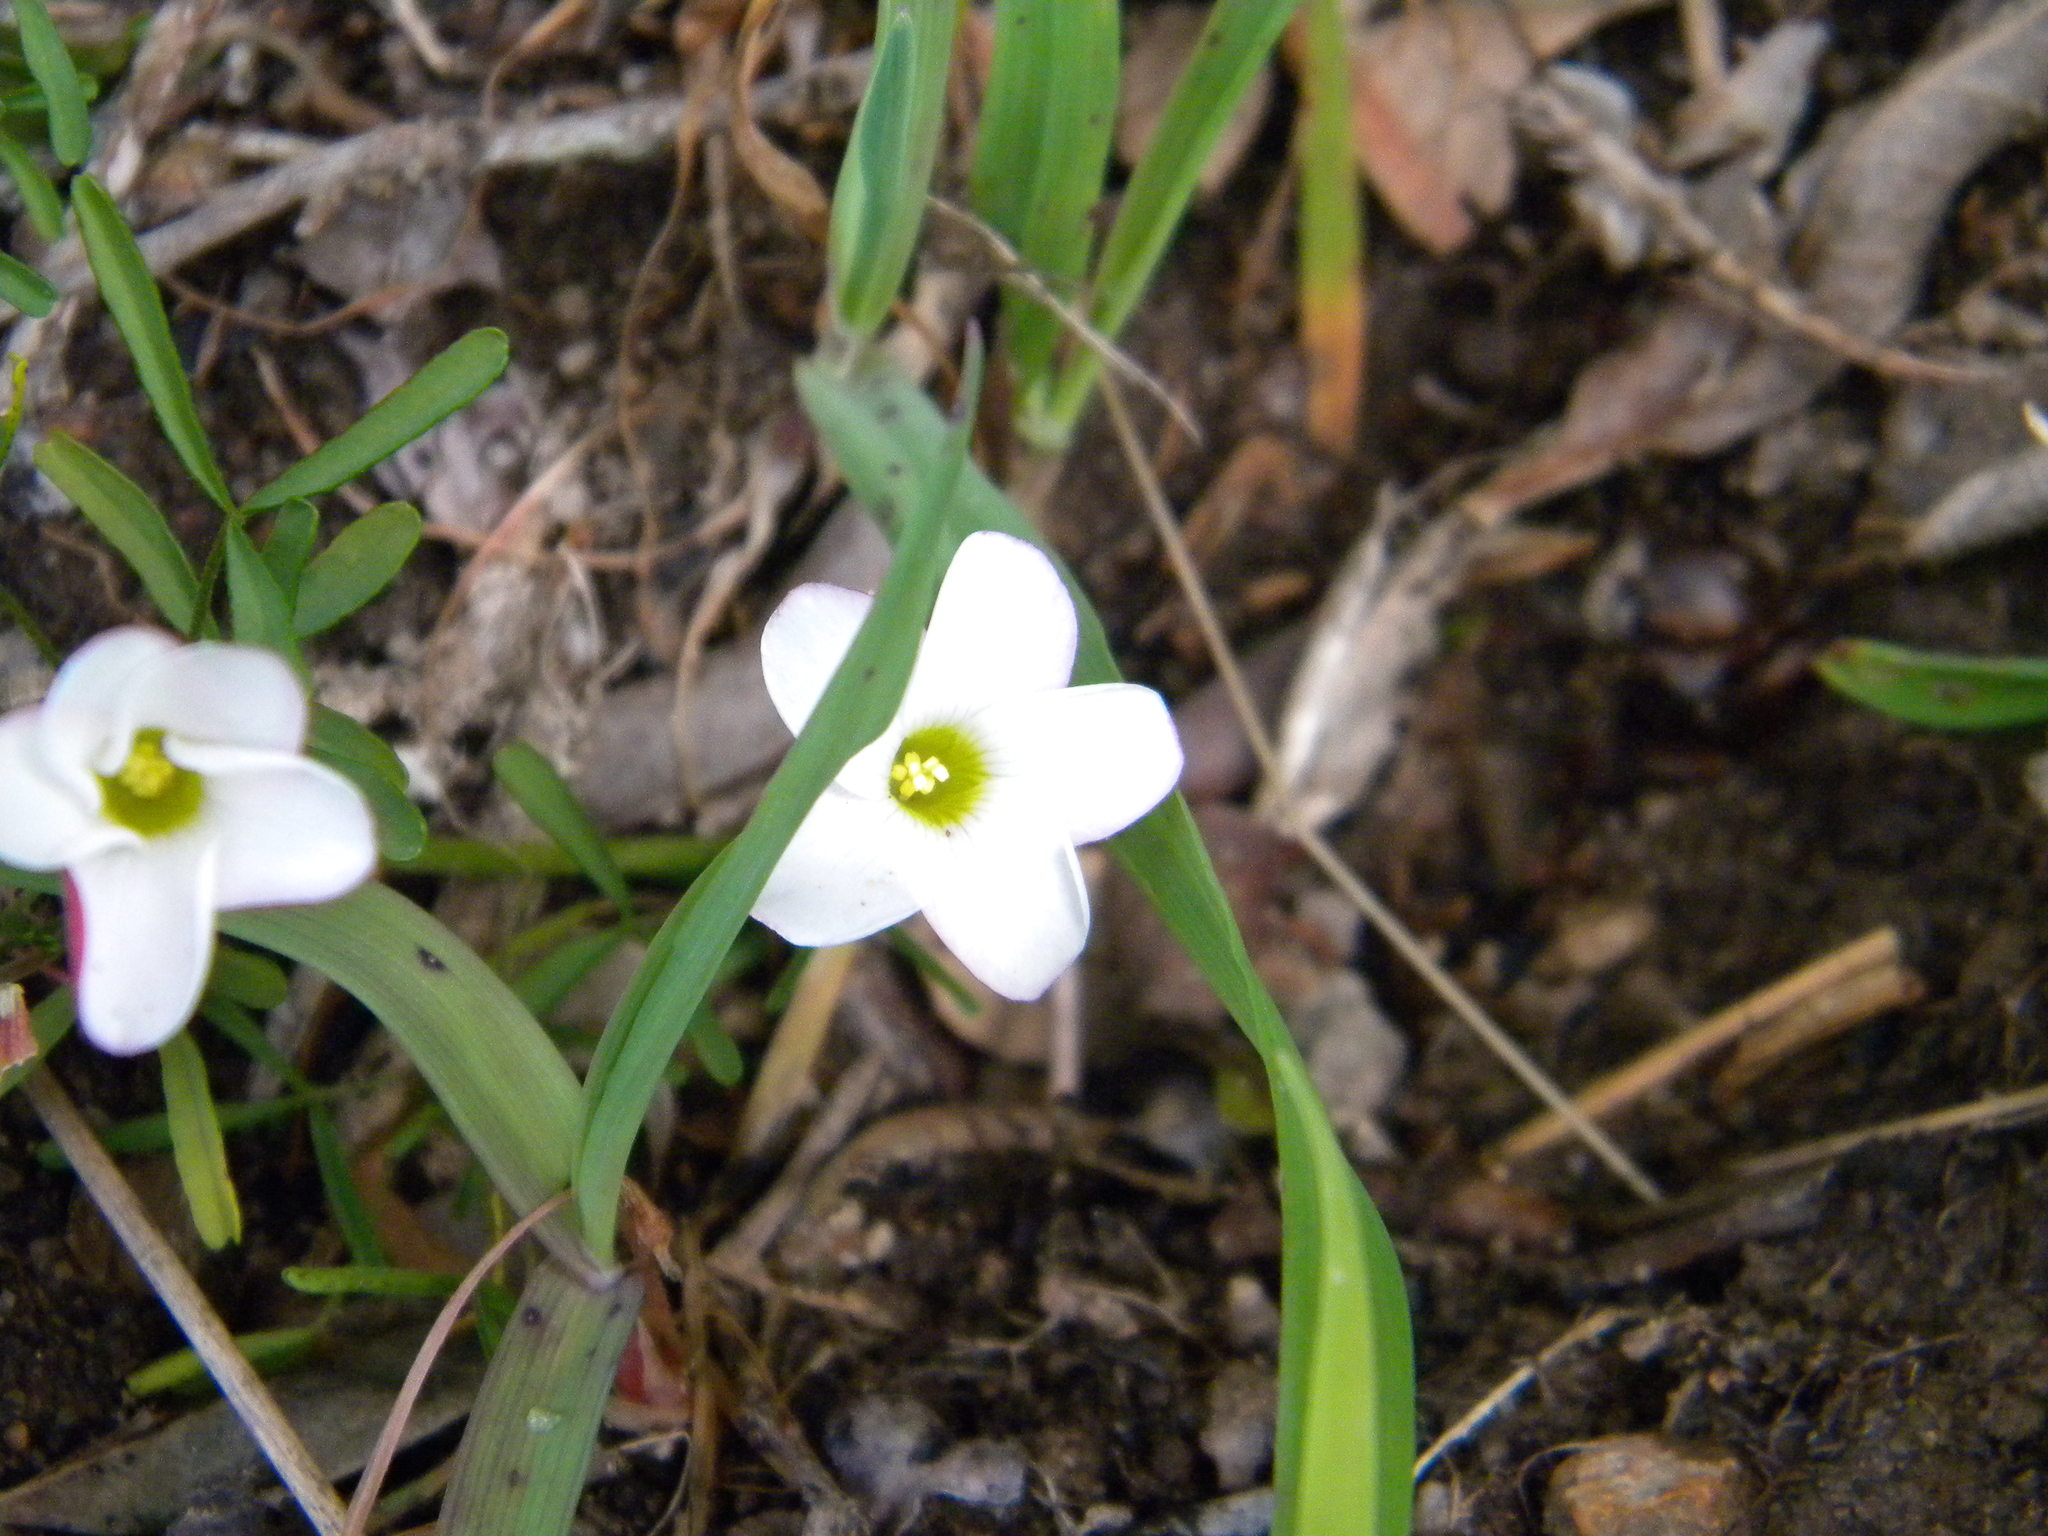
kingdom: Plantae
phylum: Tracheophyta
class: Magnoliopsida
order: Oxalidales
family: Oxalidaceae
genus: Oxalis
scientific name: Oxalis versicolor
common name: Peppermint rock oxalis
